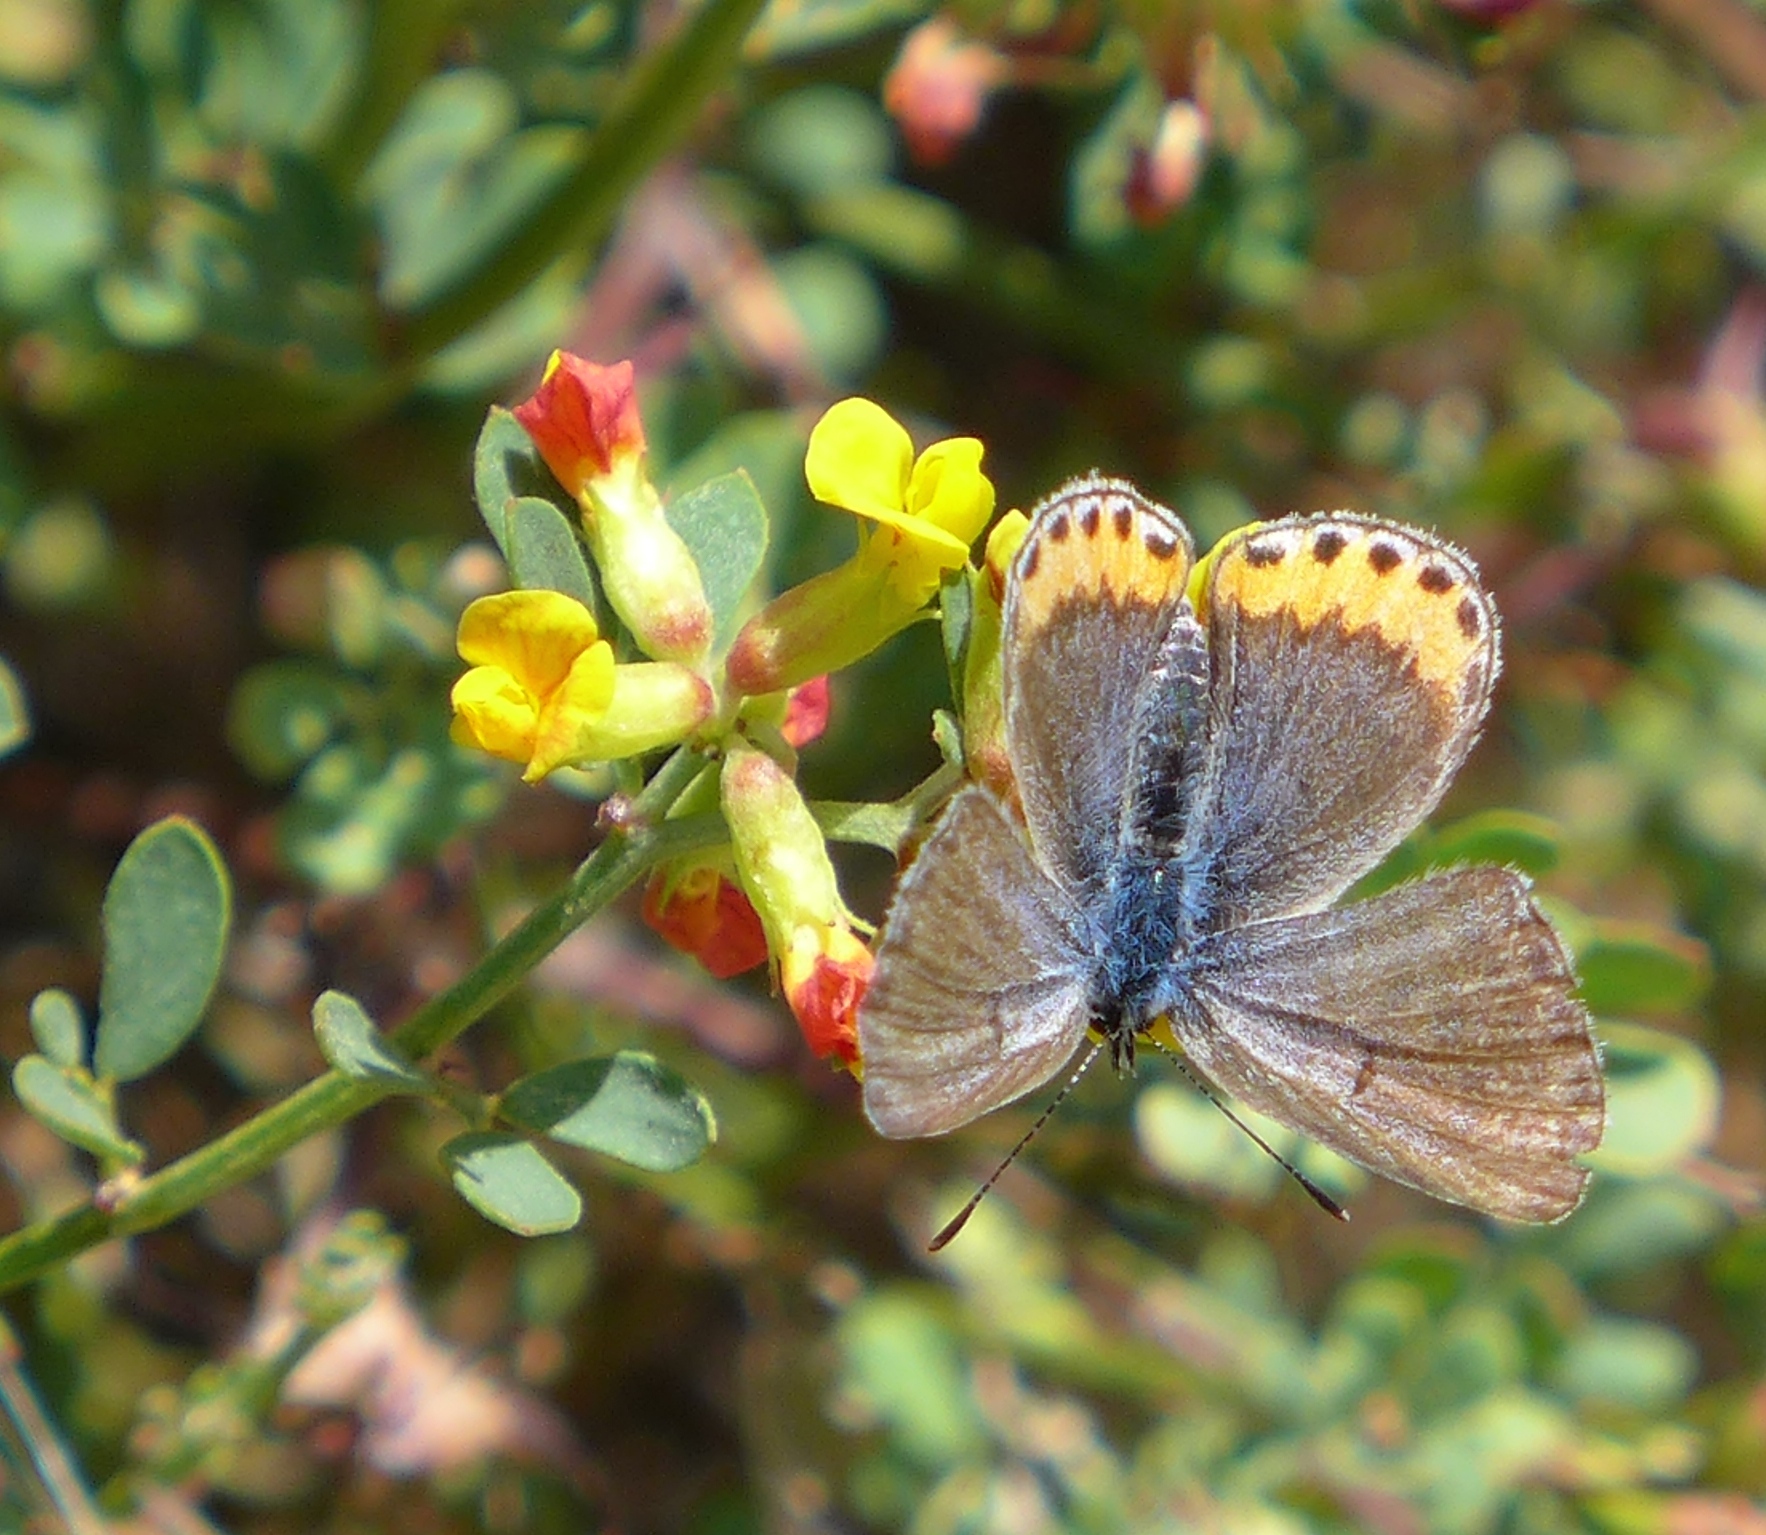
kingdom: Animalia
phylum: Arthropoda
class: Insecta
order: Lepidoptera
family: Lycaenidae
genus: Icaricia
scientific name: Icaricia acmon
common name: Acmon blue
